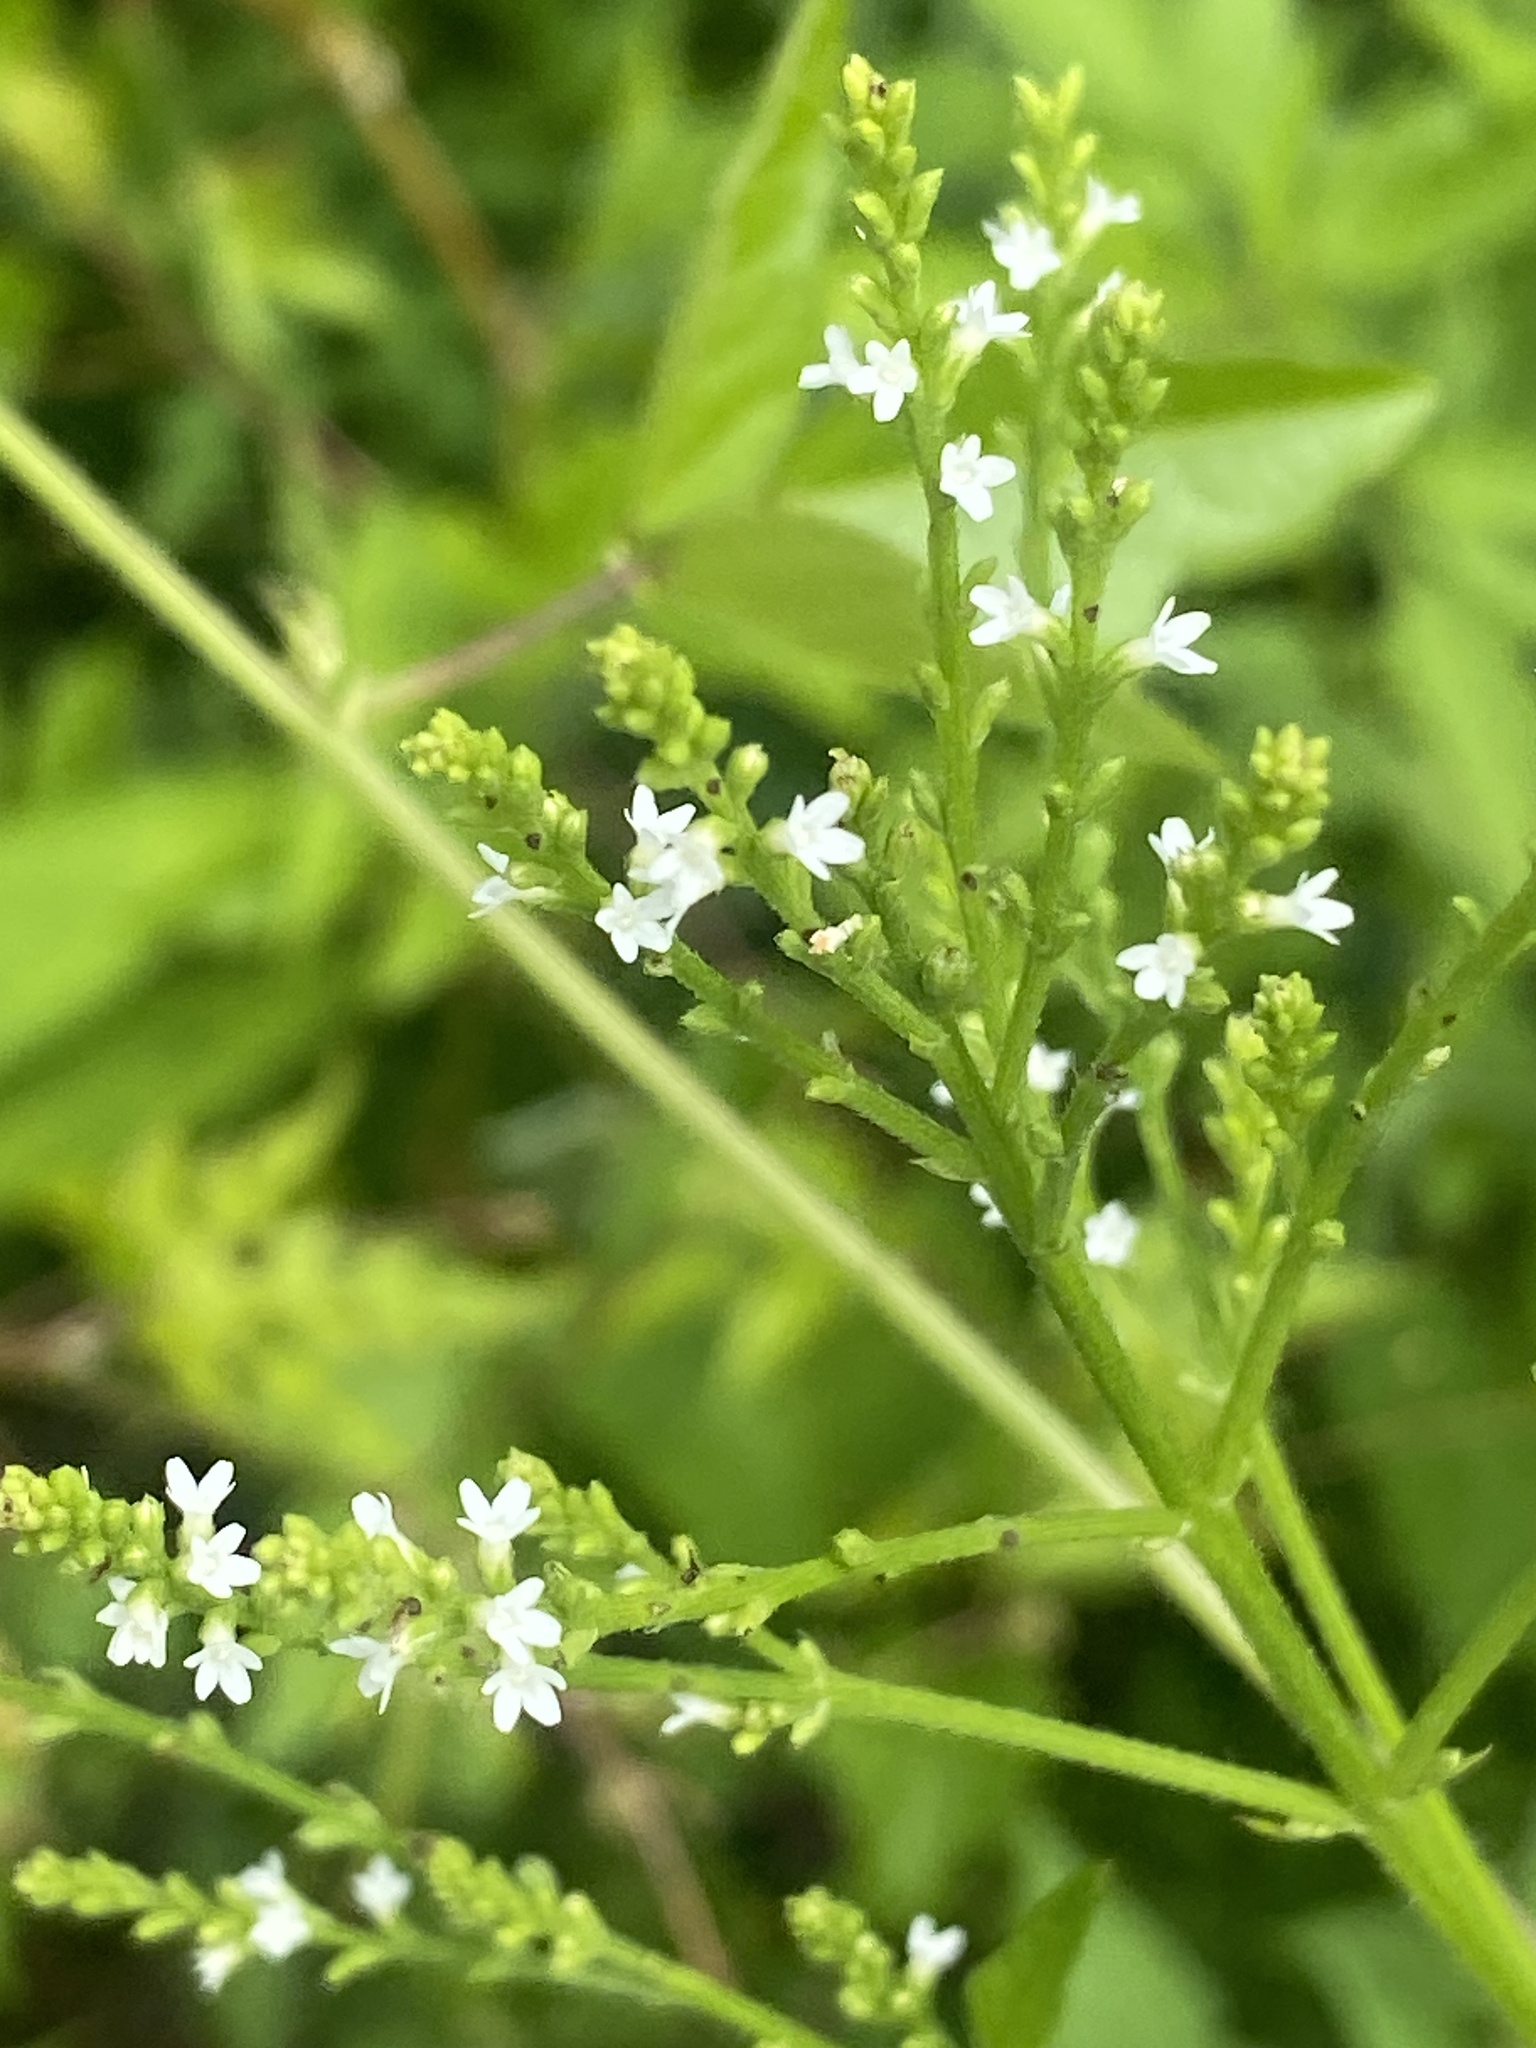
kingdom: Plantae
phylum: Tracheophyta
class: Magnoliopsida
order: Lamiales
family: Verbenaceae
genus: Verbena
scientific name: Verbena urticifolia
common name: Nettle-leaved vervain
